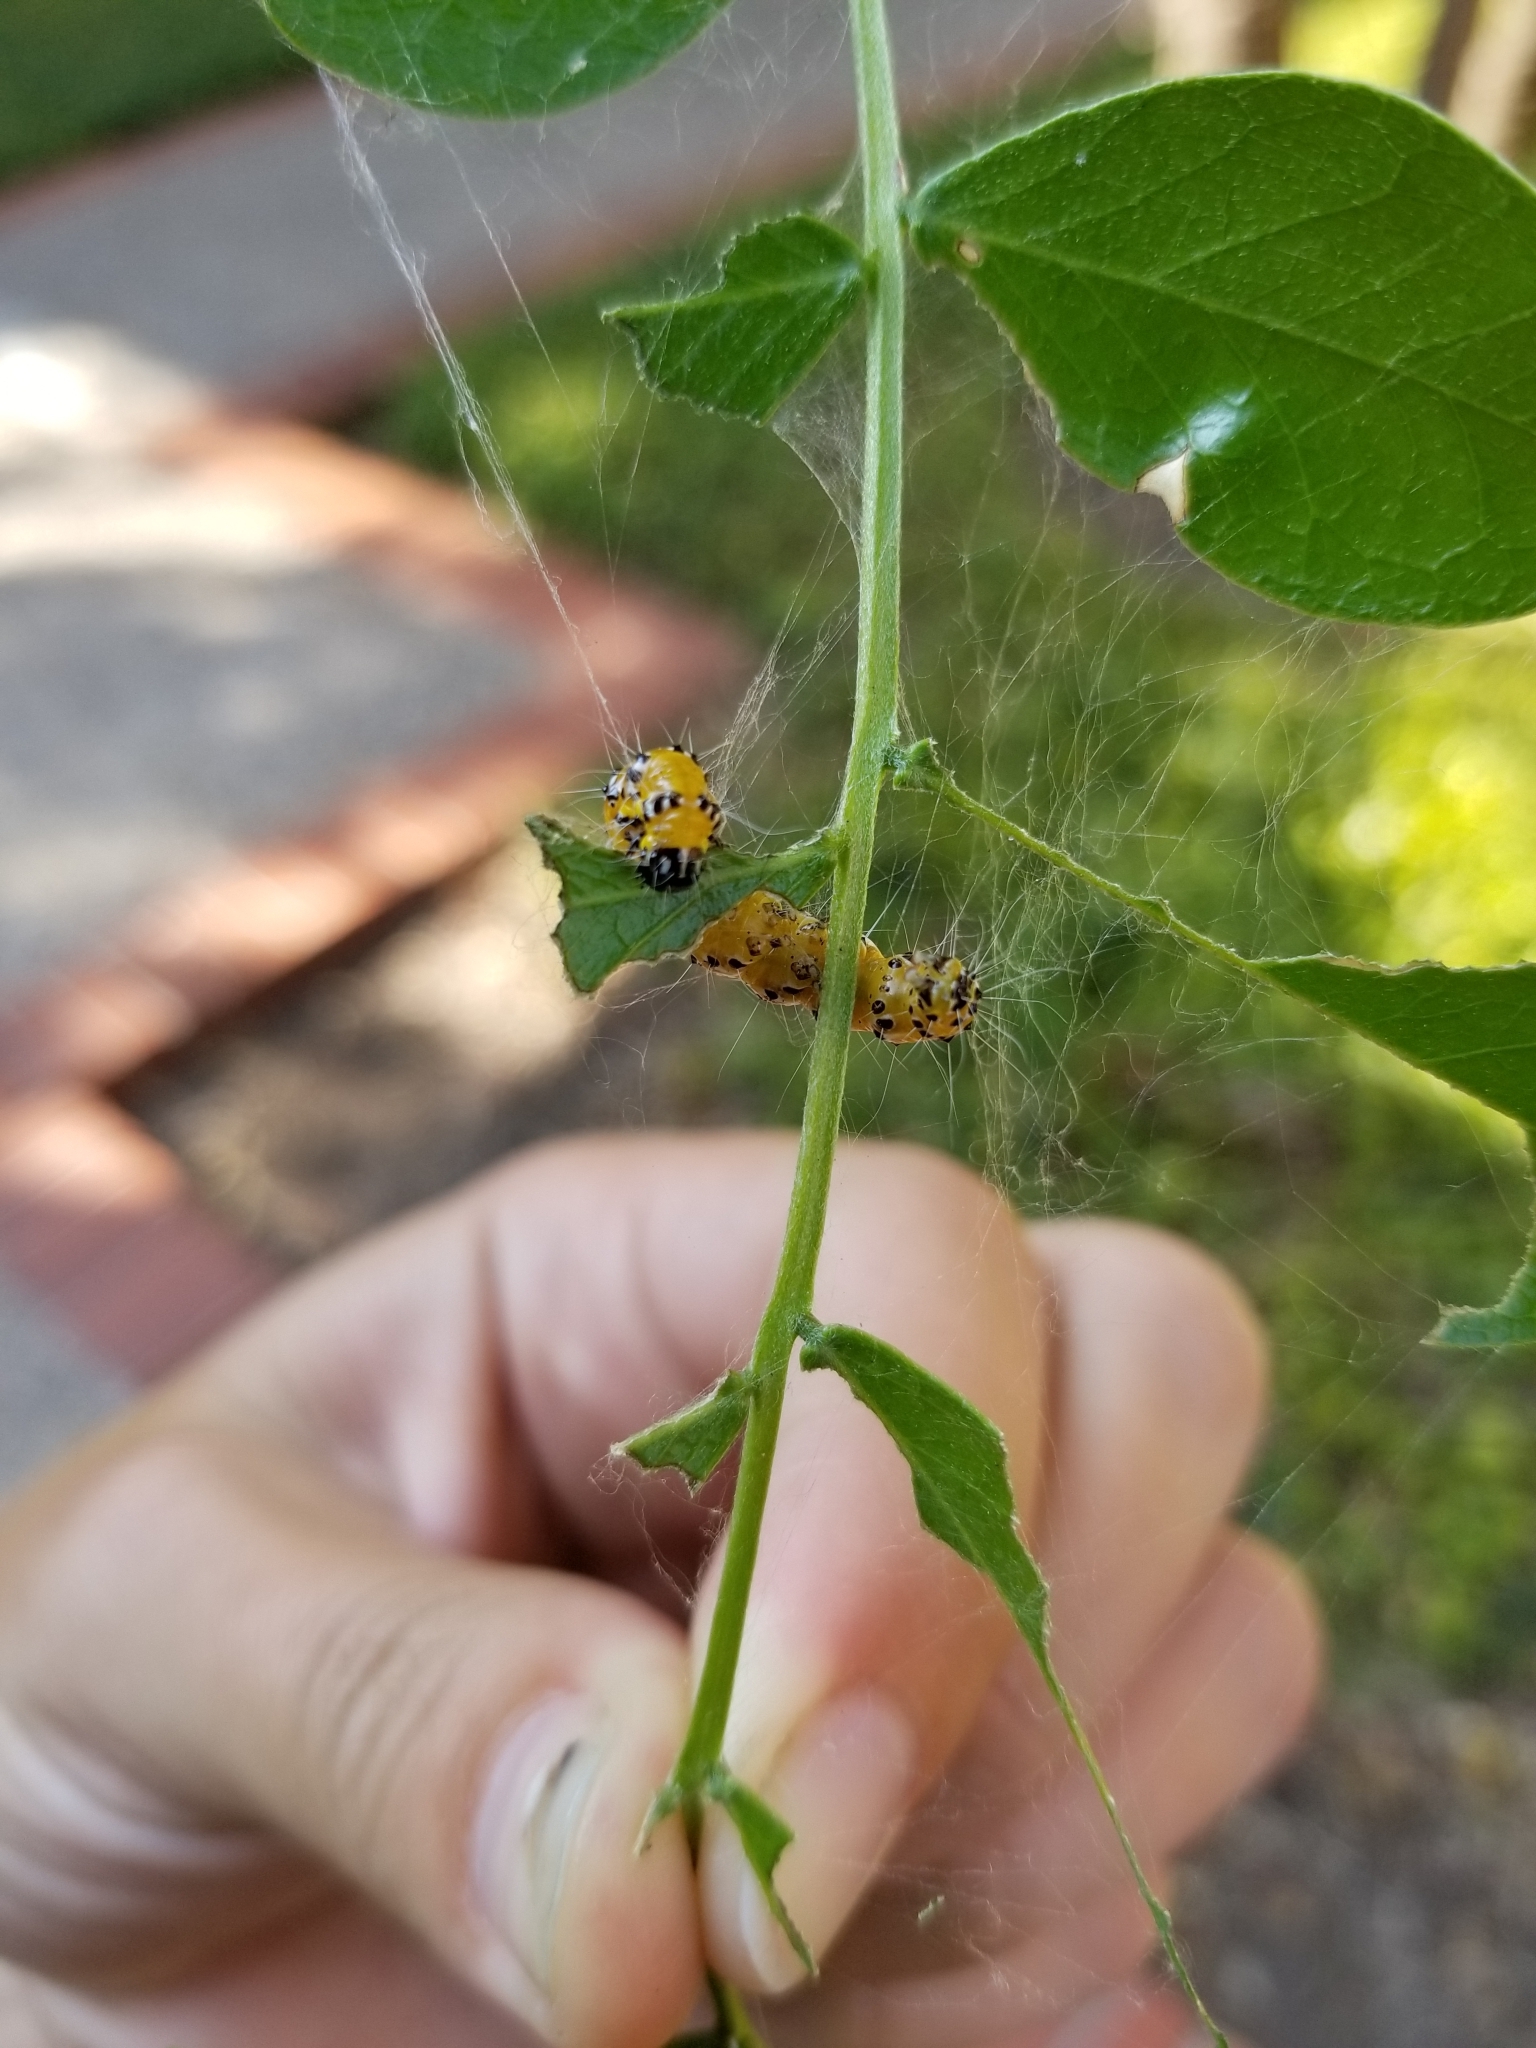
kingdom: Animalia
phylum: Arthropoda
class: Insecta
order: Lepidoptera
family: Crambidae
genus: Uresiphita
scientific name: Uresiphita reversalis
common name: Genista broom moth
